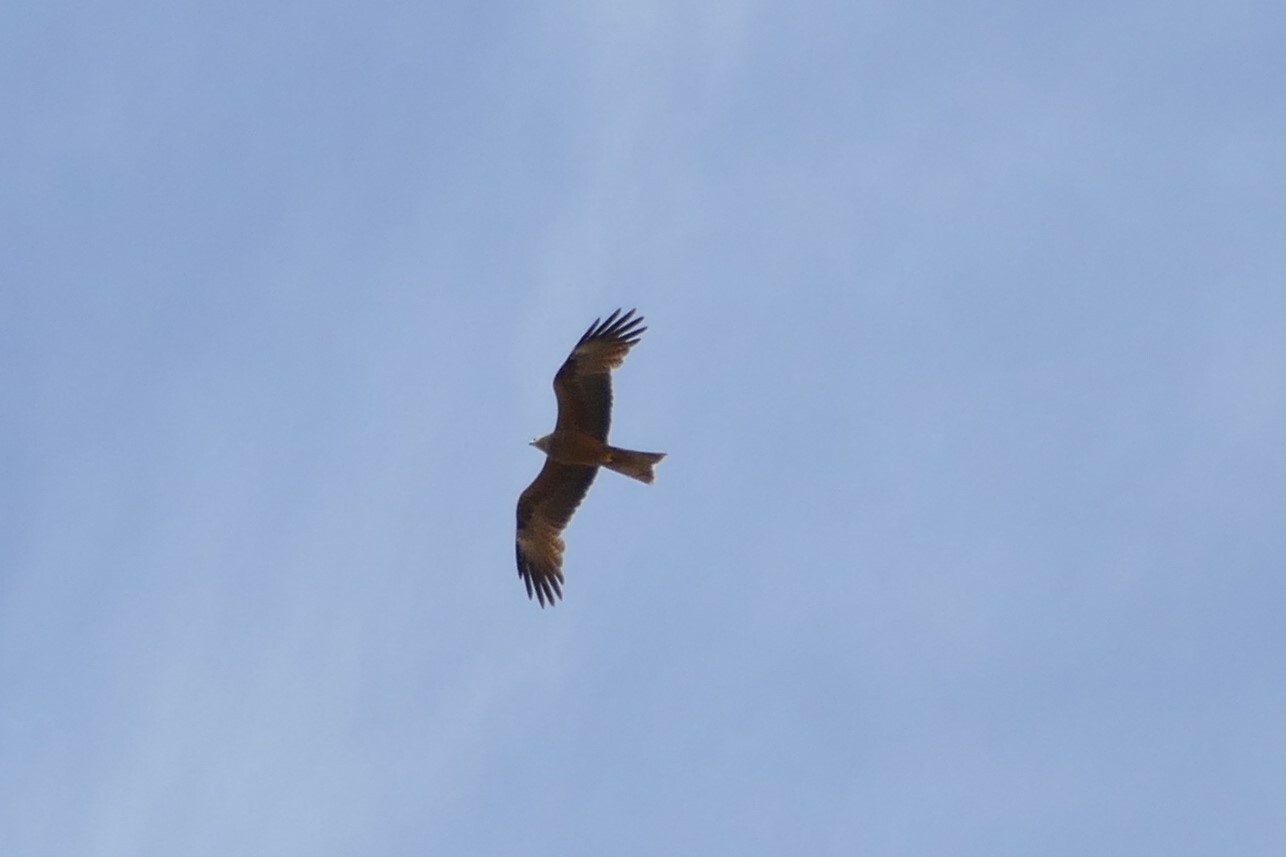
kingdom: Animalia
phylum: Chordata
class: Aves
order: Accipitriformes
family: Accipitridae
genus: Milvus
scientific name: Milvus migrans
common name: Black kite
